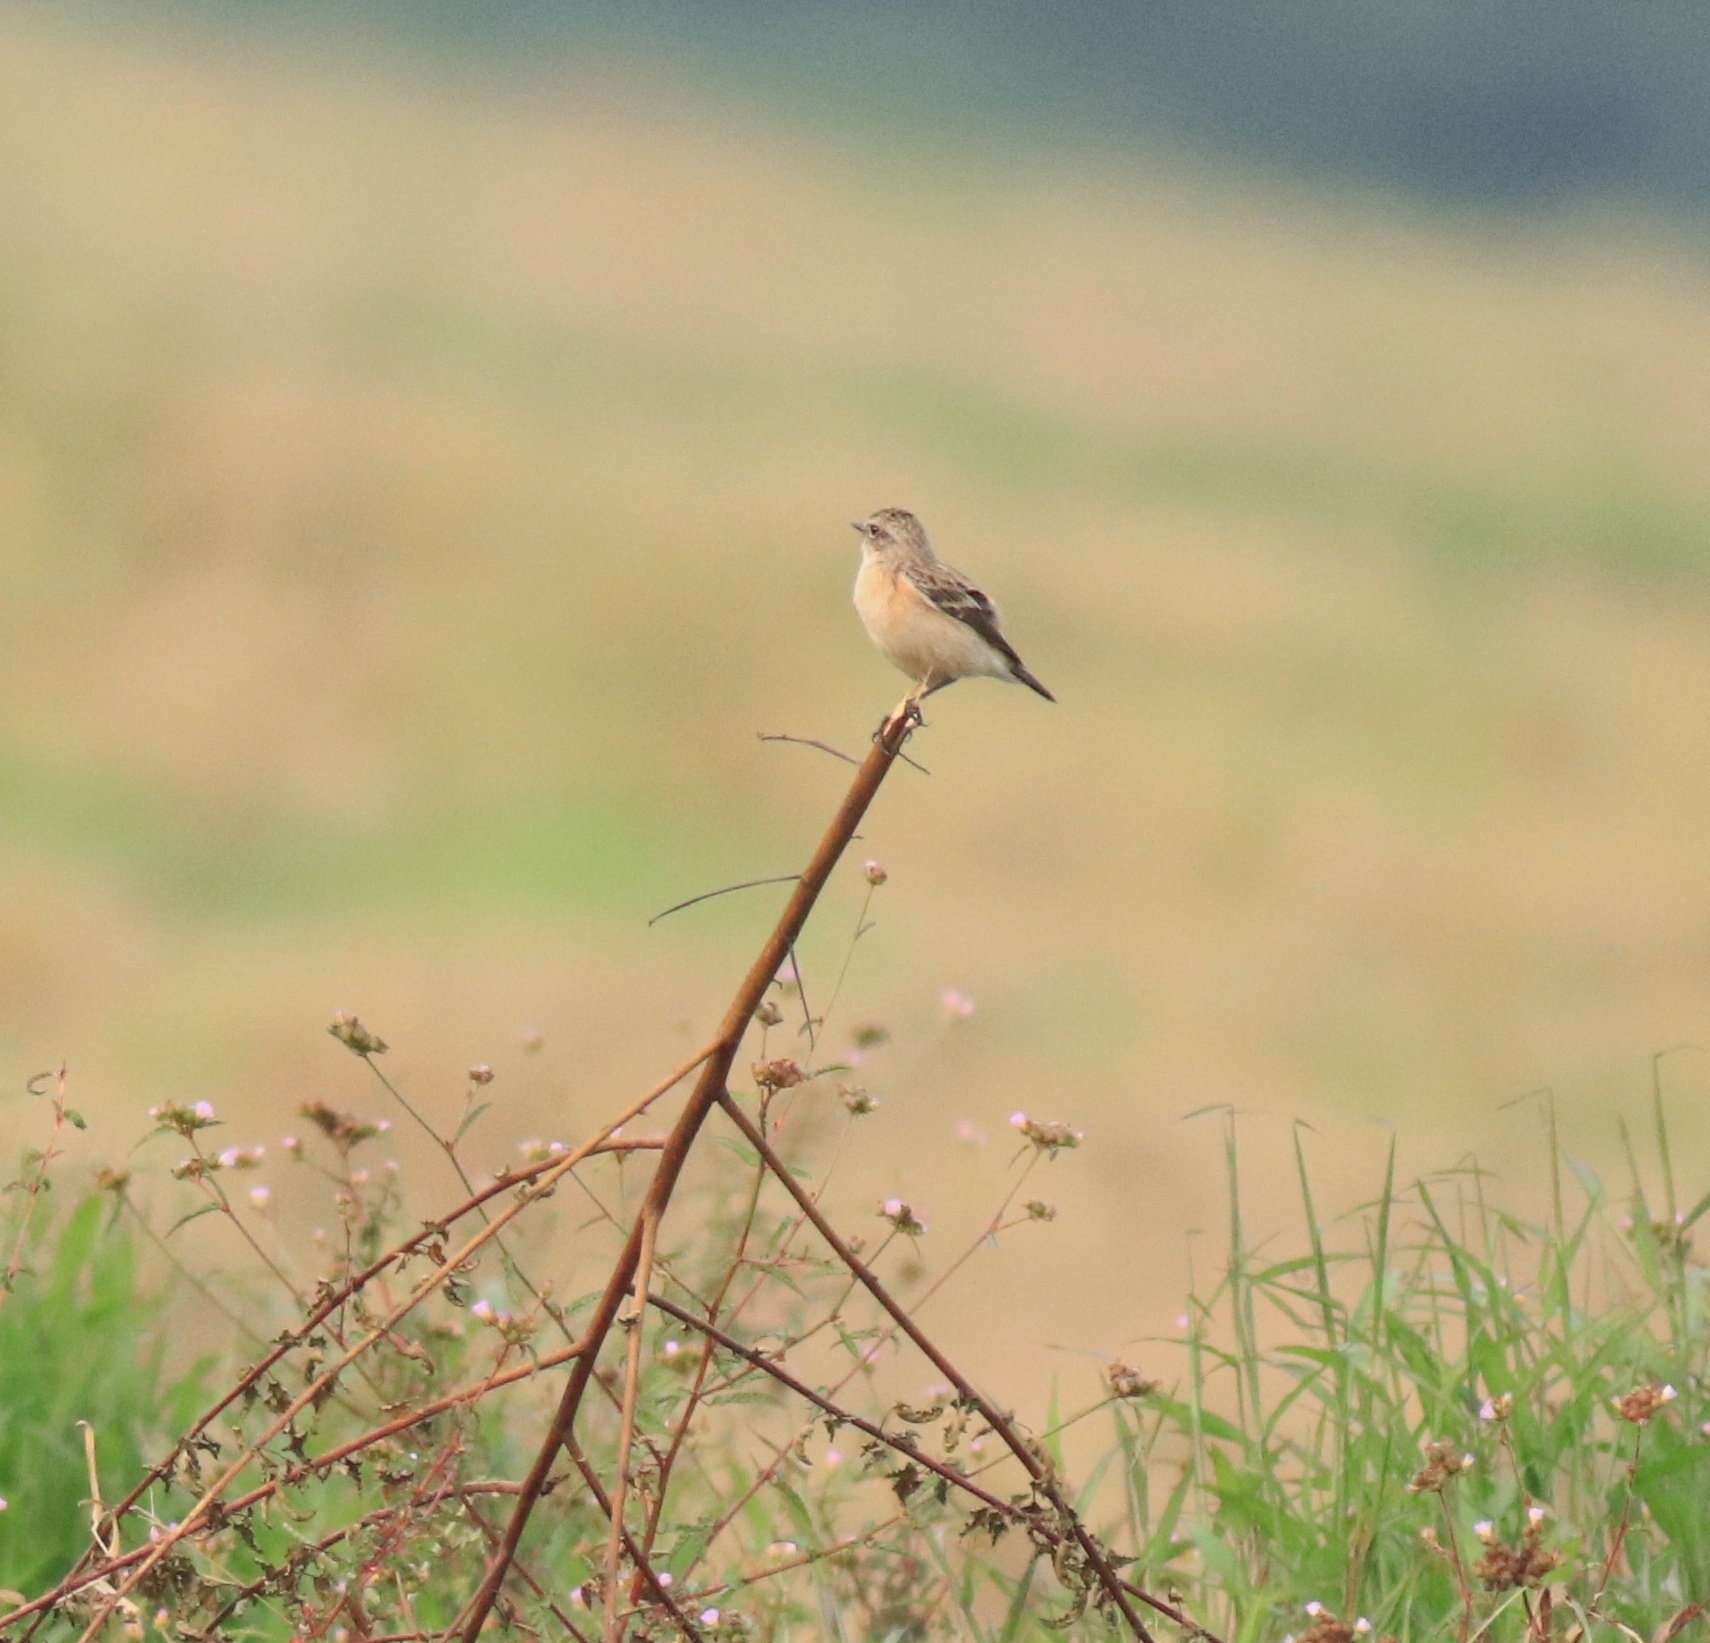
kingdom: Animalia
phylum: Chordata
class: Aves
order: Passeriformes
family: Muscicapidae
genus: Saxicola
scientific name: Saxicola maurus
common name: Siberian stonechat
